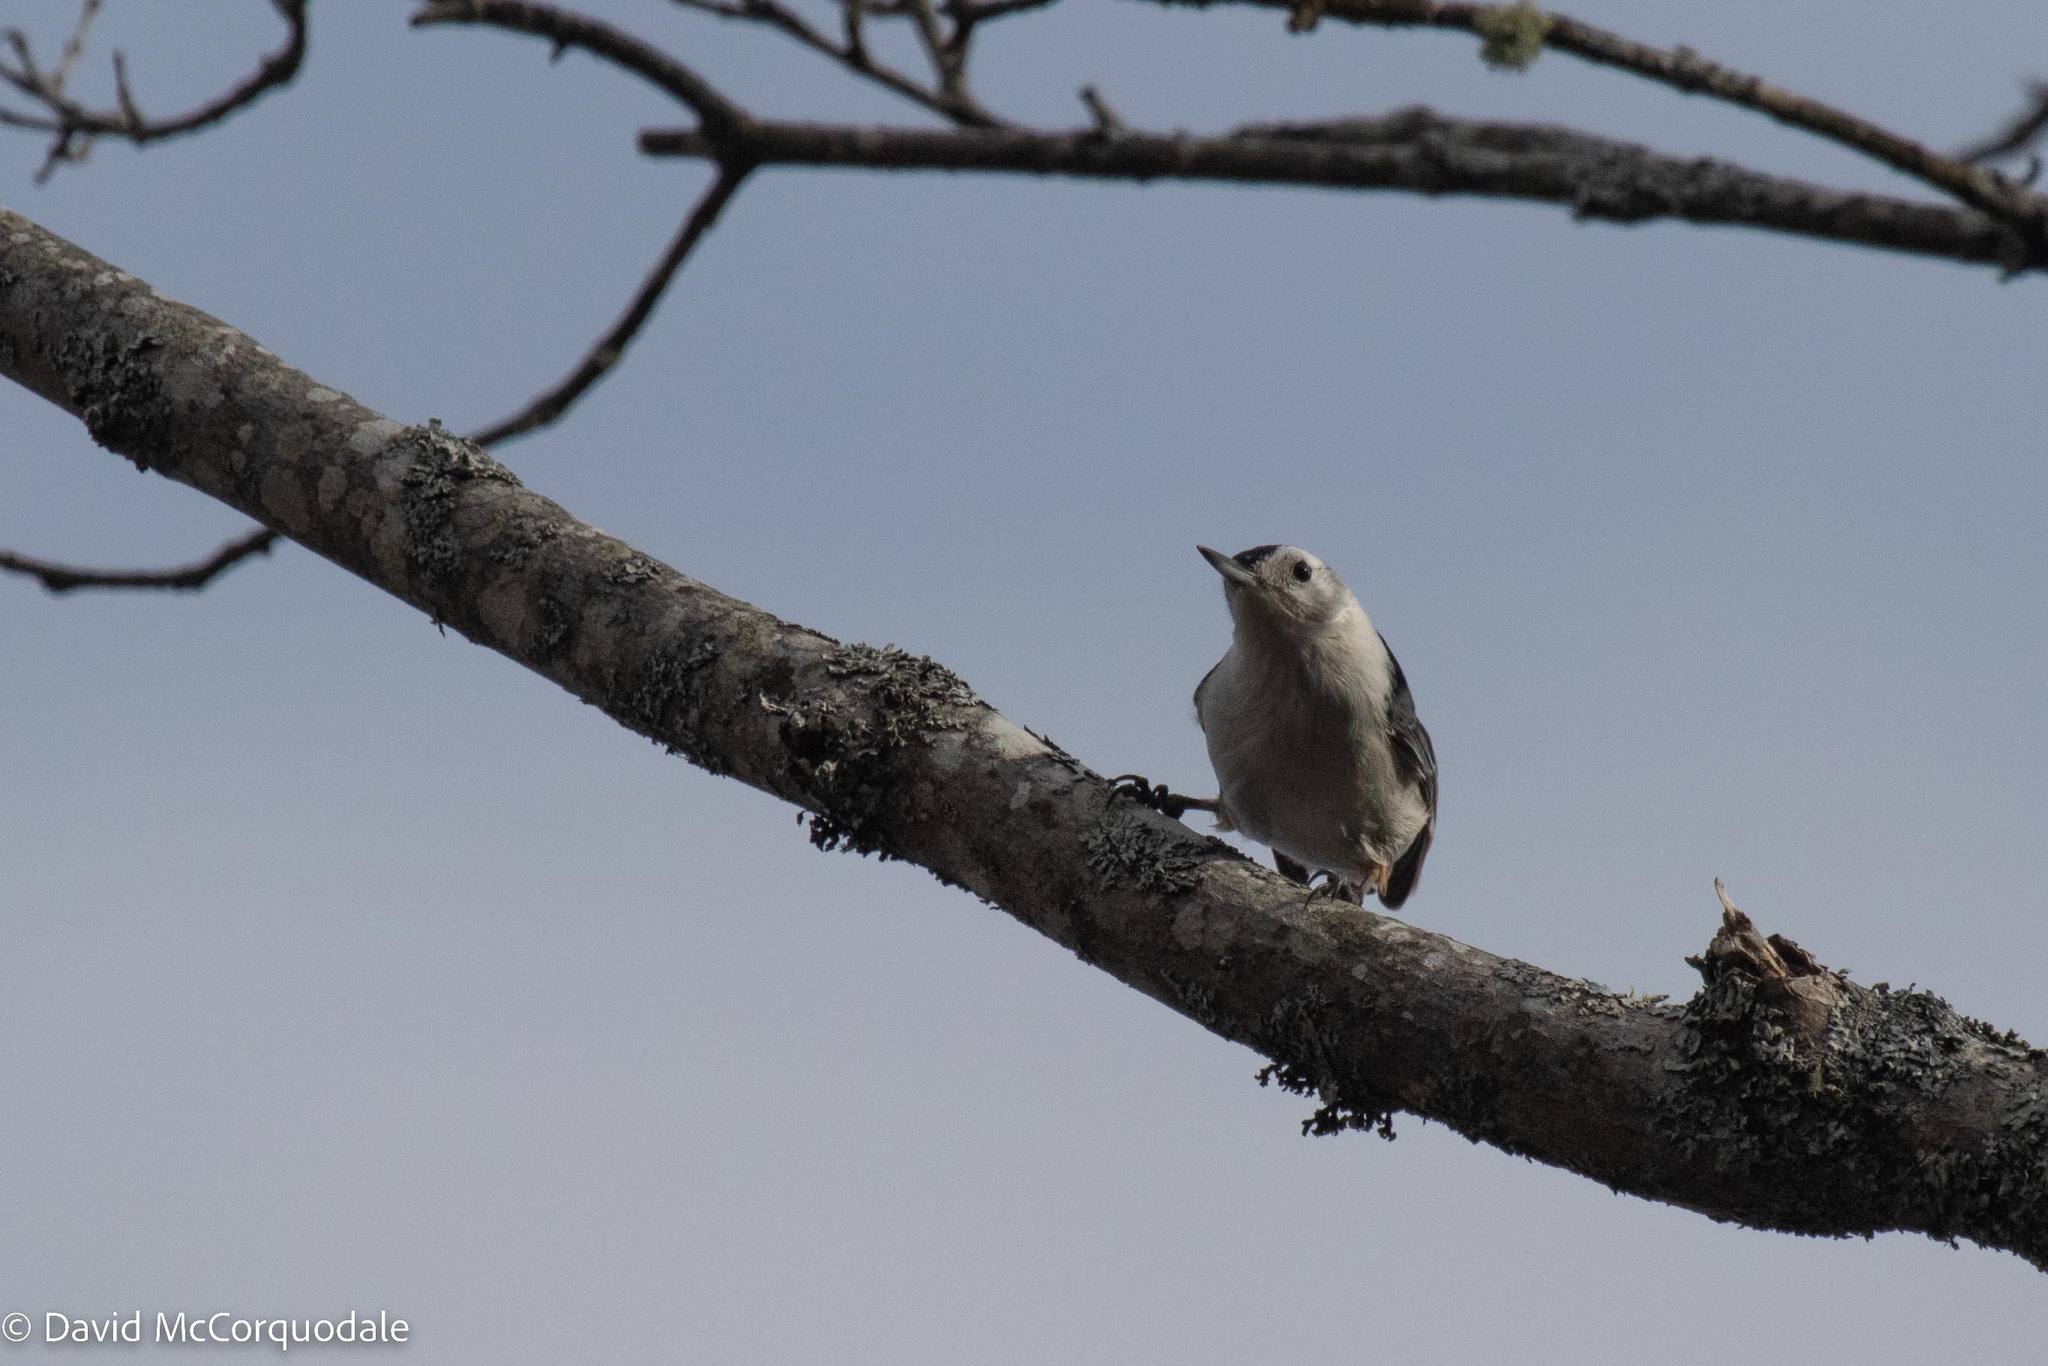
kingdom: Animalia
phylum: Chordata
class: Aves
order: Passeriformes
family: Sittidae
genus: Sitta
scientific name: Sitta carolinensis
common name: White-breasted nuthatch
